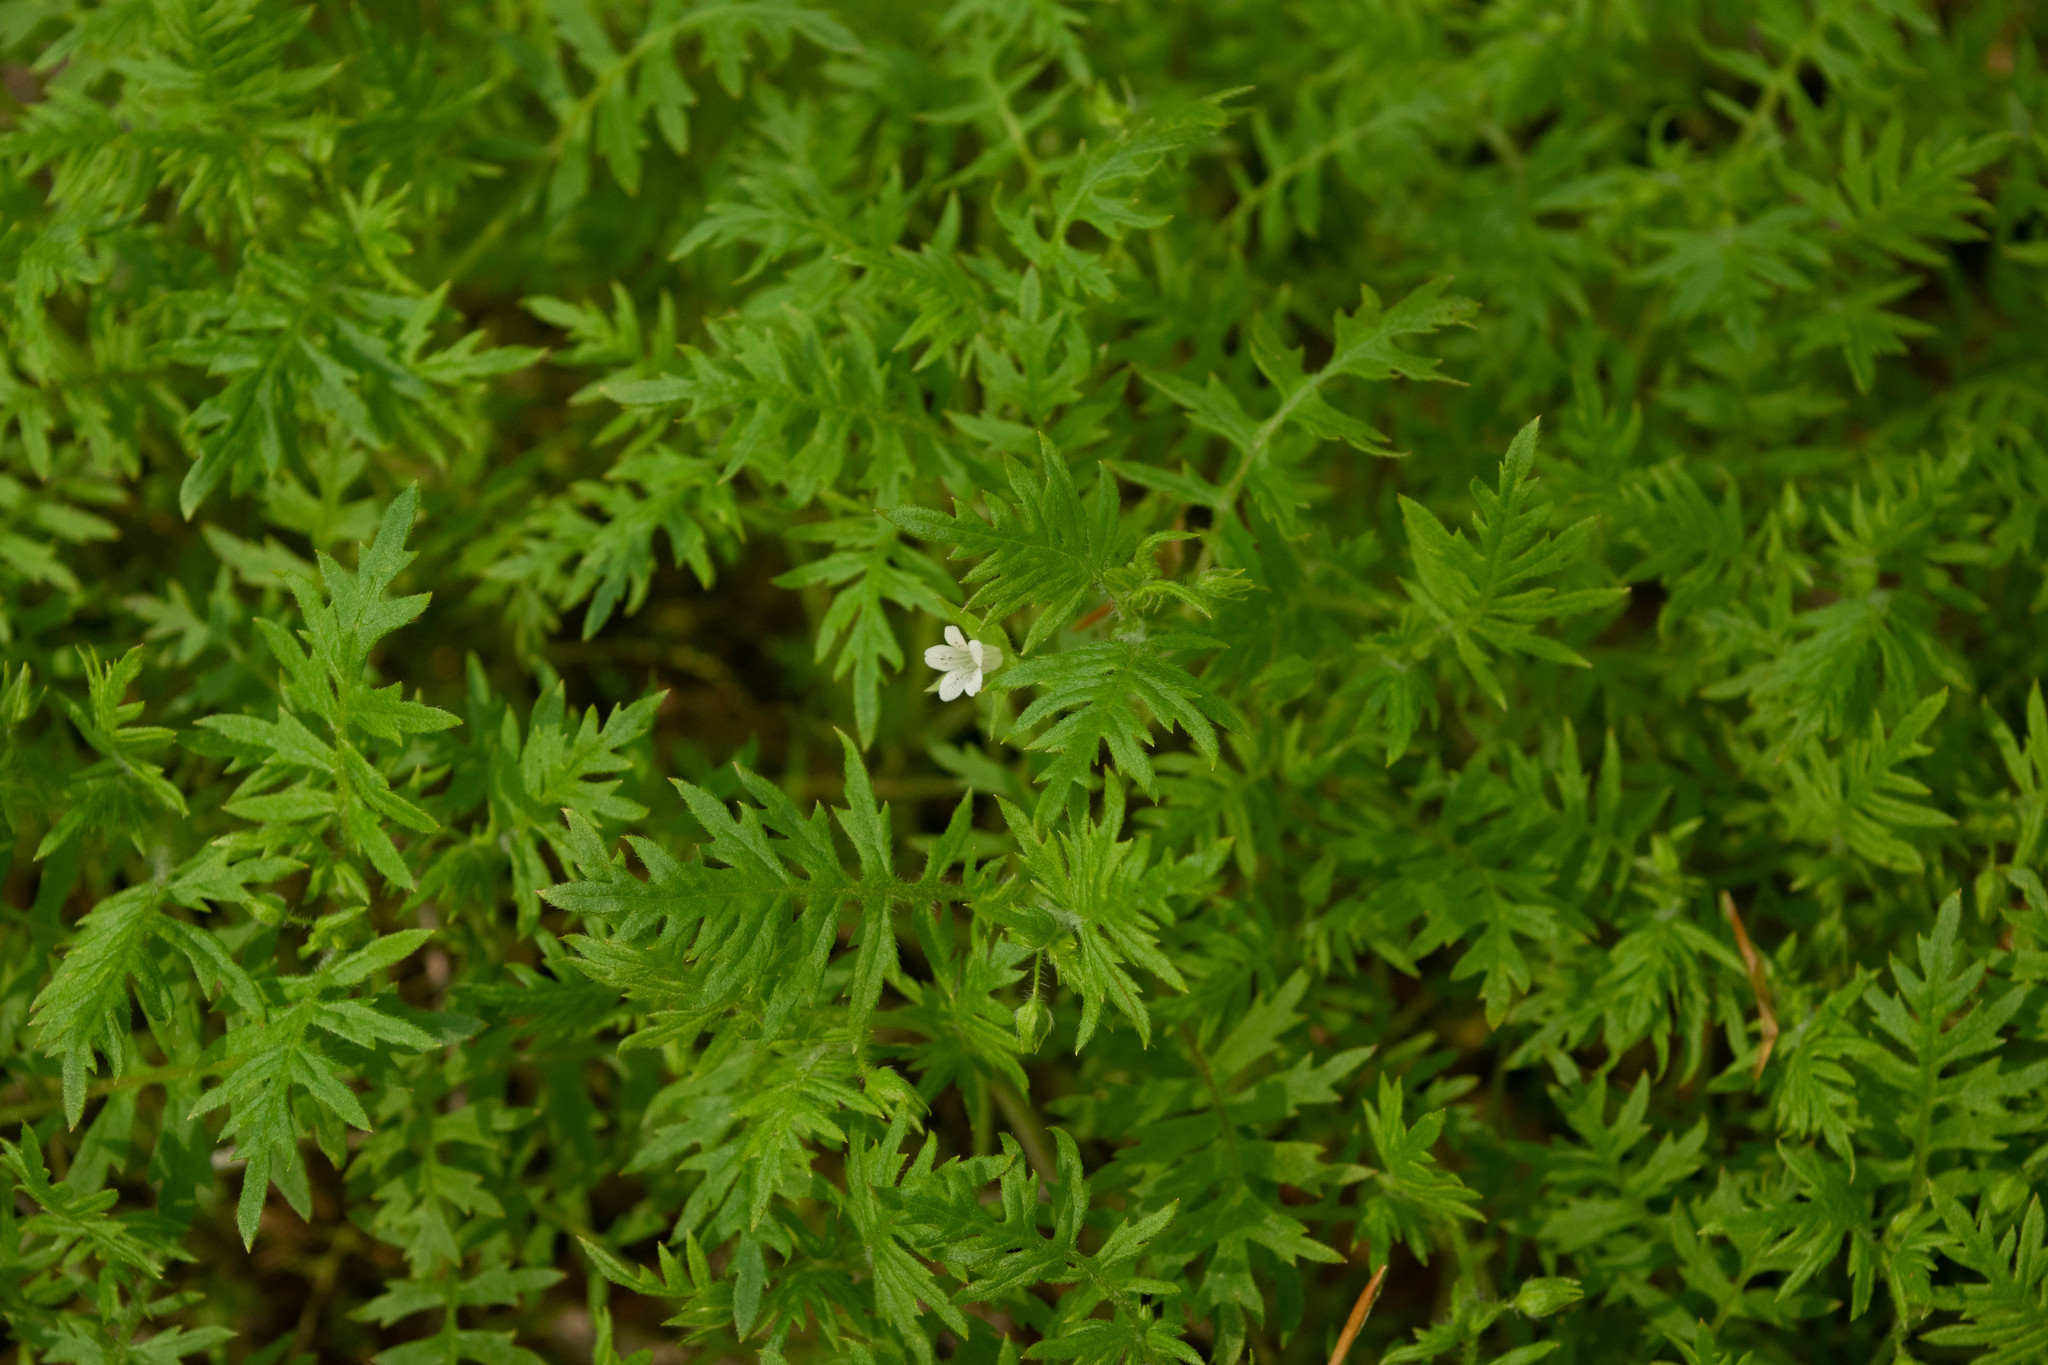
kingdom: Plantae
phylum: Tracheophyta
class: Magnoliopsida
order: Boraginales
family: Hydrophyllaceae
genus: Ellisia
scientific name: Ellisia nyctelea
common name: Aunt lucy
